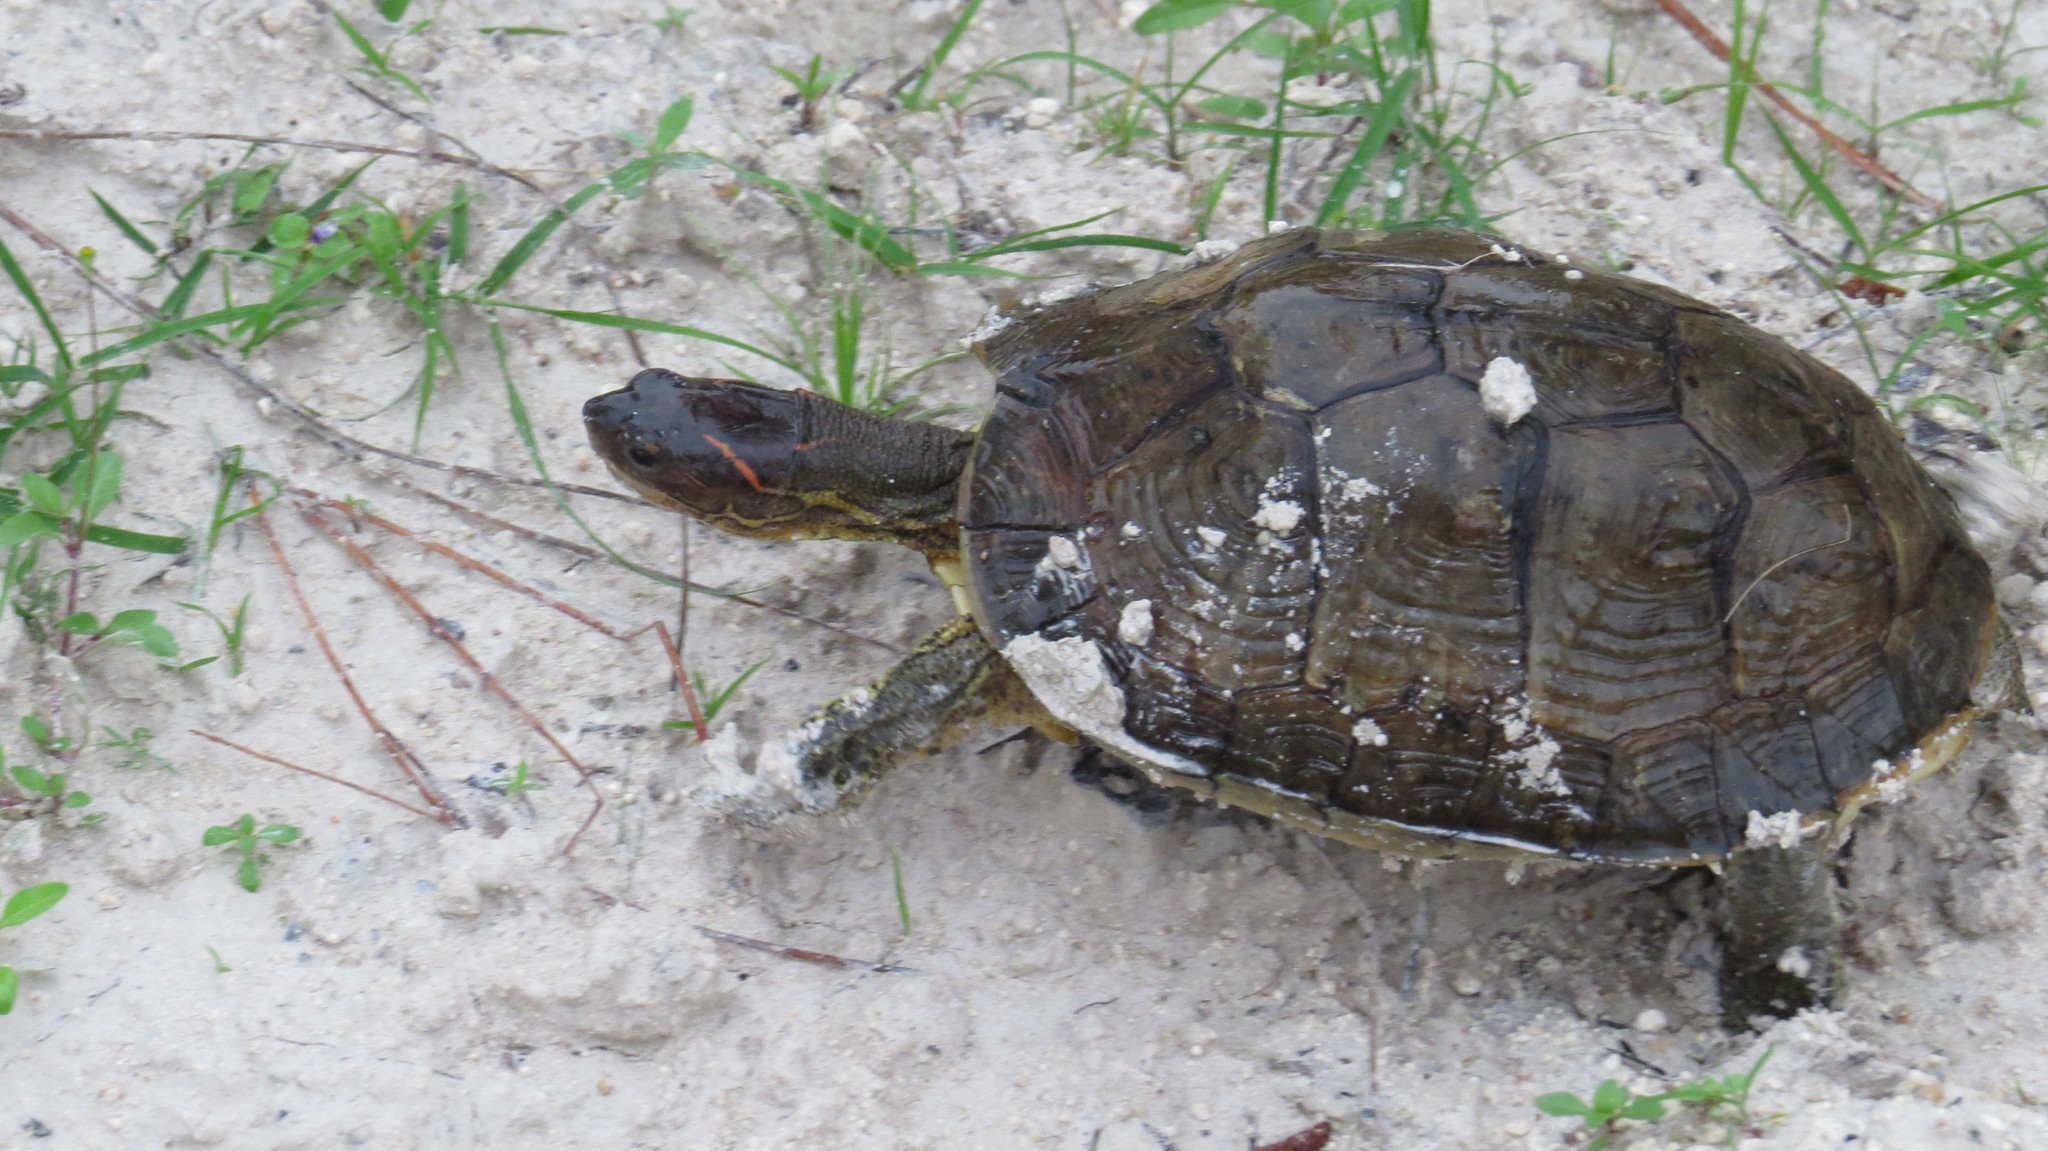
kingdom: Animalia
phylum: Chordata
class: Testudines
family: Geoemydidae
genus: Rhinoclemmys
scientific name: Rhinoclemmys areolata
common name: Furrowed wood turtle
